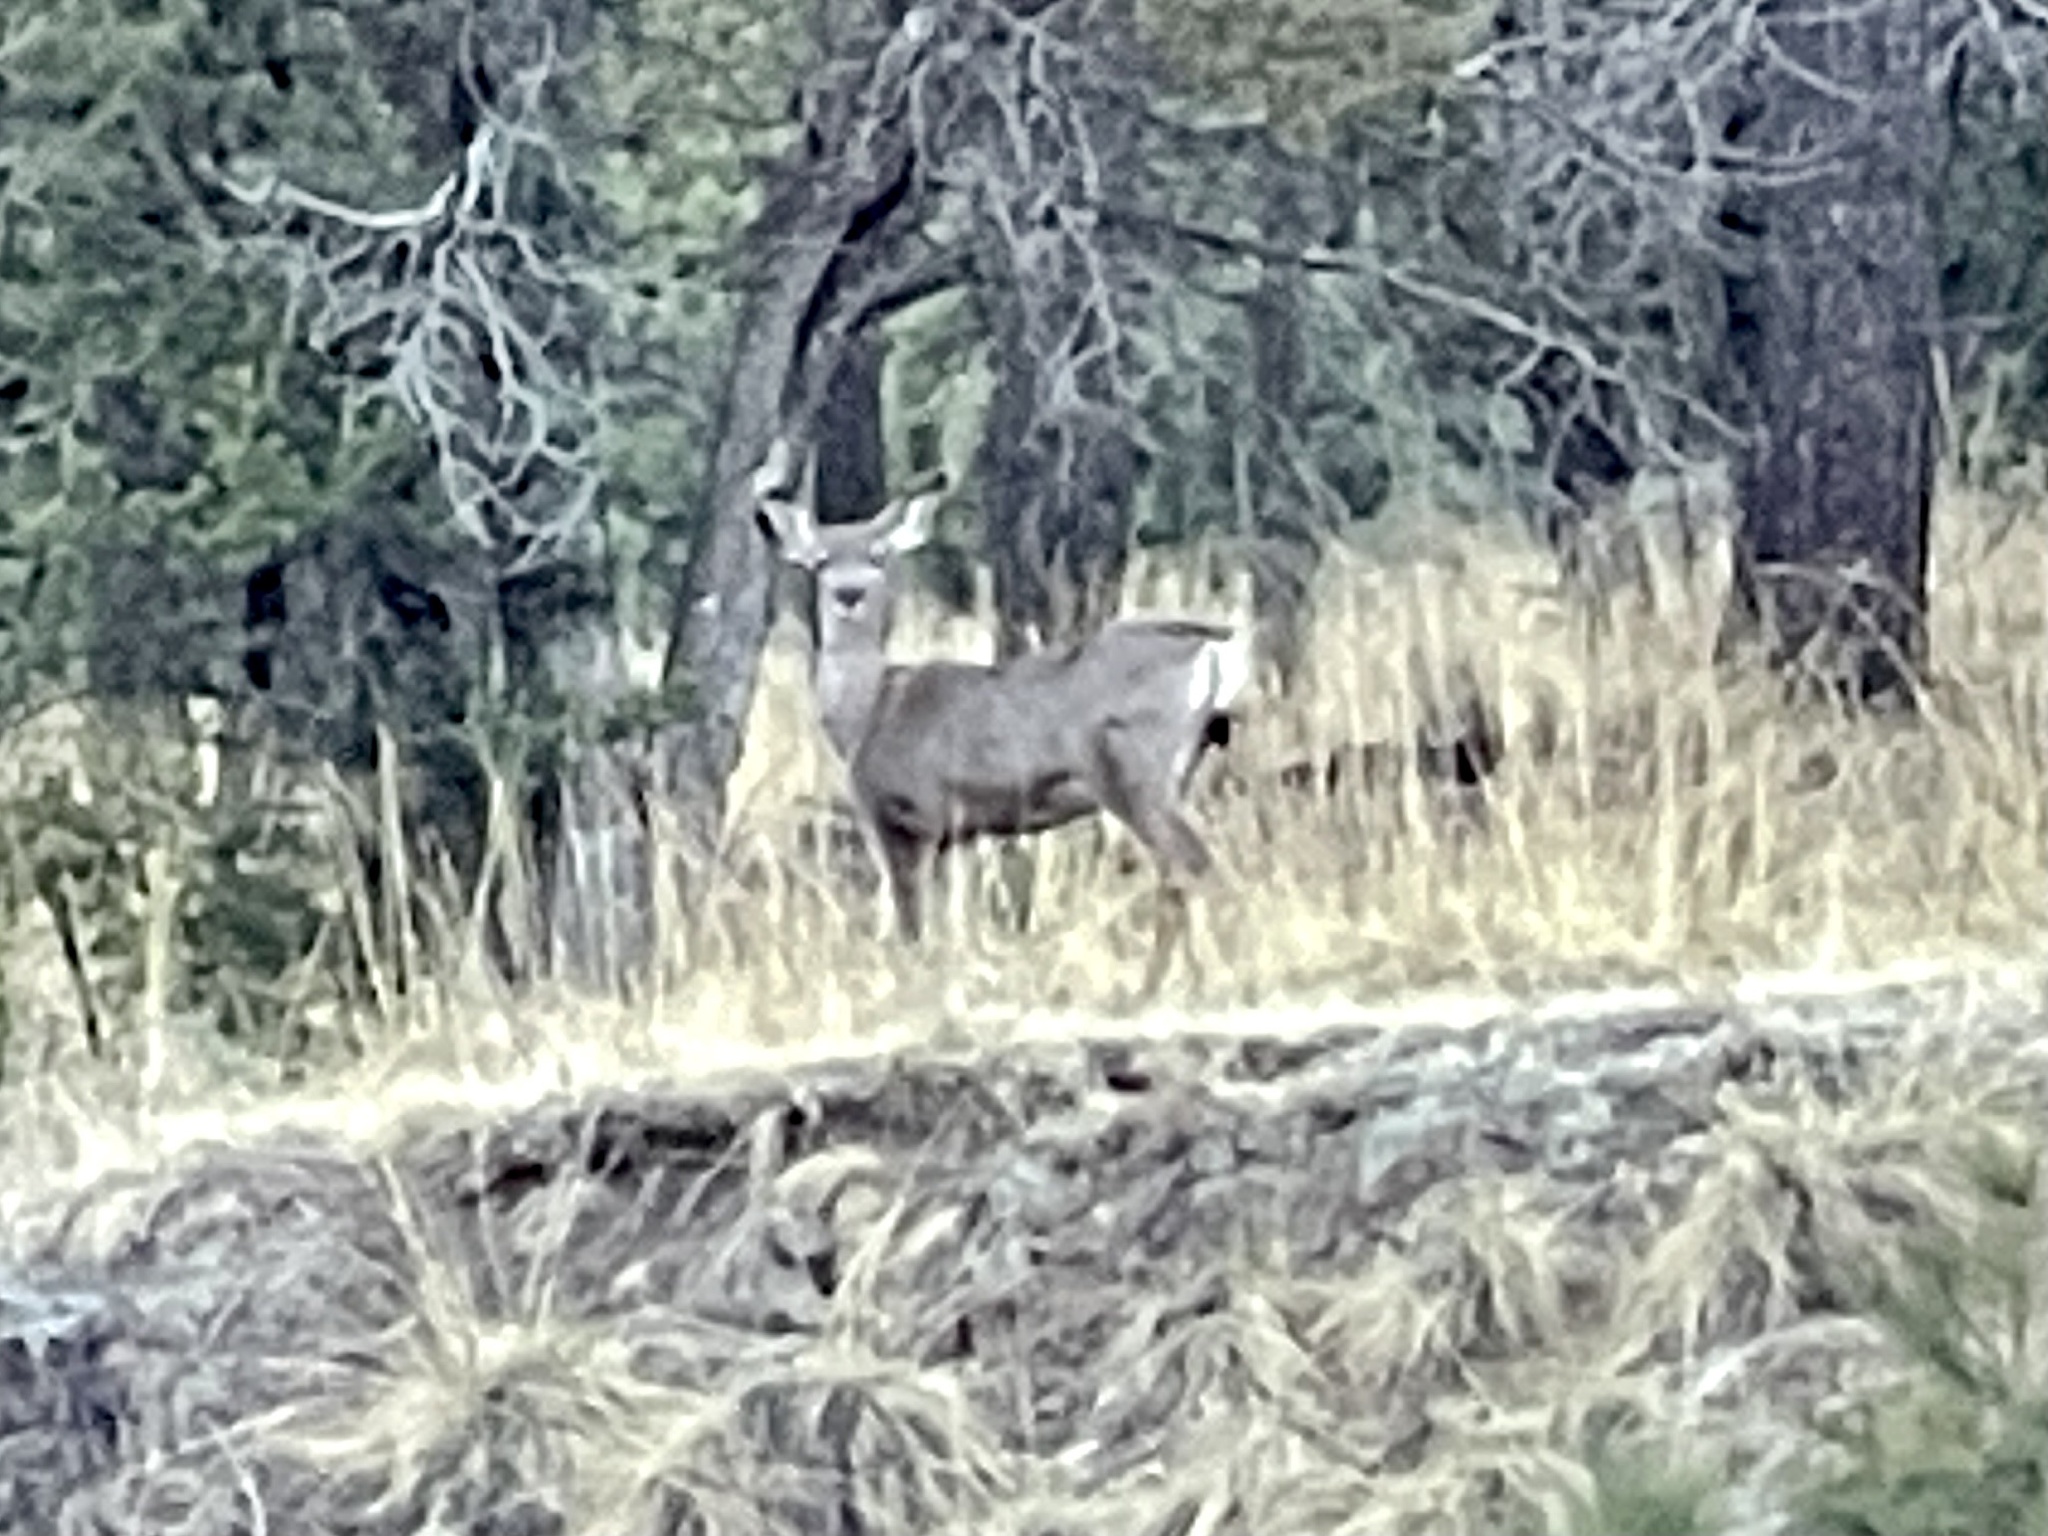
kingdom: Animalia
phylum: Chordata
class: Mammalia
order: Artiodactyla
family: Cervidae
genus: Odocoileus
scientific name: Odocoileus hemionus
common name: Mule deer
